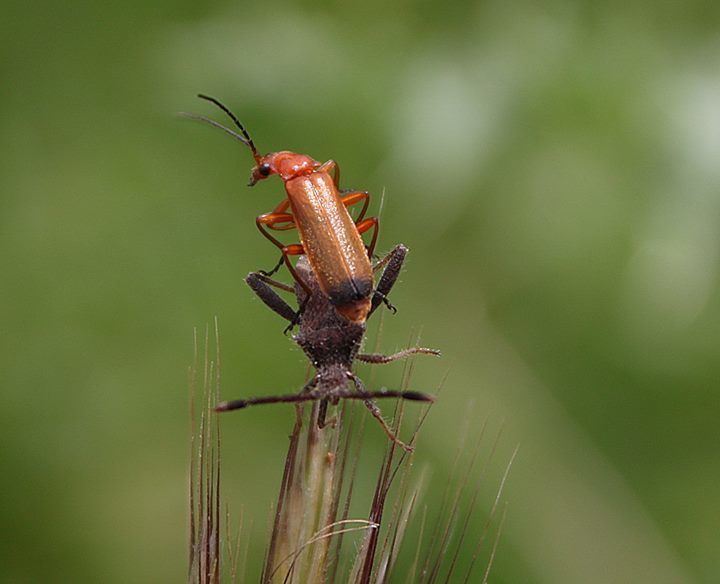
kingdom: Animalia
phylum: Arthropoda
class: Insecta
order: Coleoptera
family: Cantharidae
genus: Rhagonycha
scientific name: Rhagonycha fulva
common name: Common red soldier beetle
